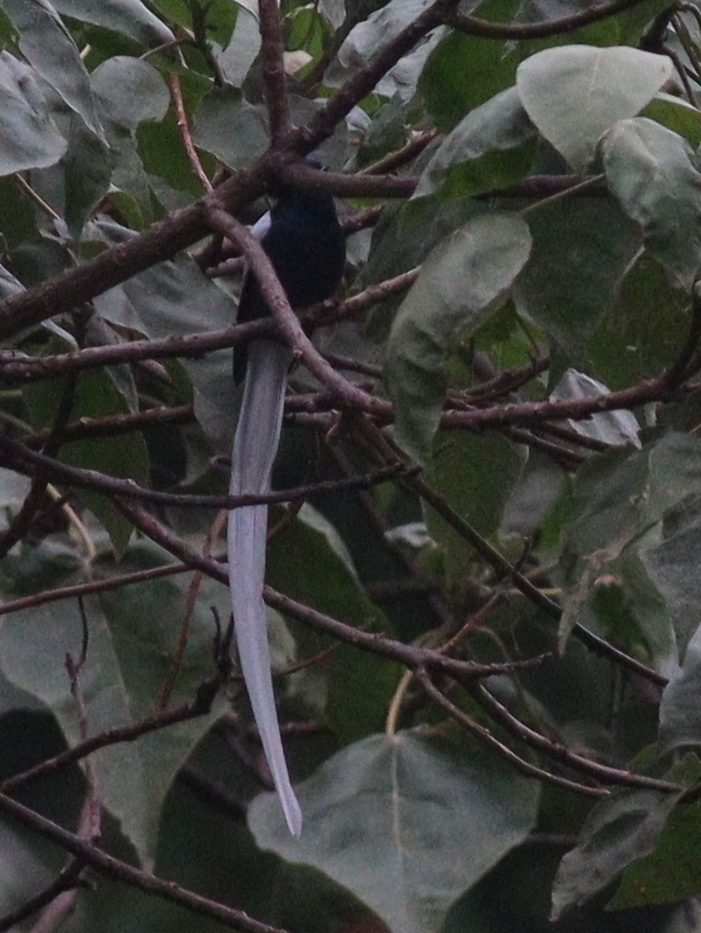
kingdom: Animalia
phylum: Chordata
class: Aves
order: Passeriformes
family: Monarchidae
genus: Terpsiphone
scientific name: Terpsiphone viridis
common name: African paradise flycatcher
